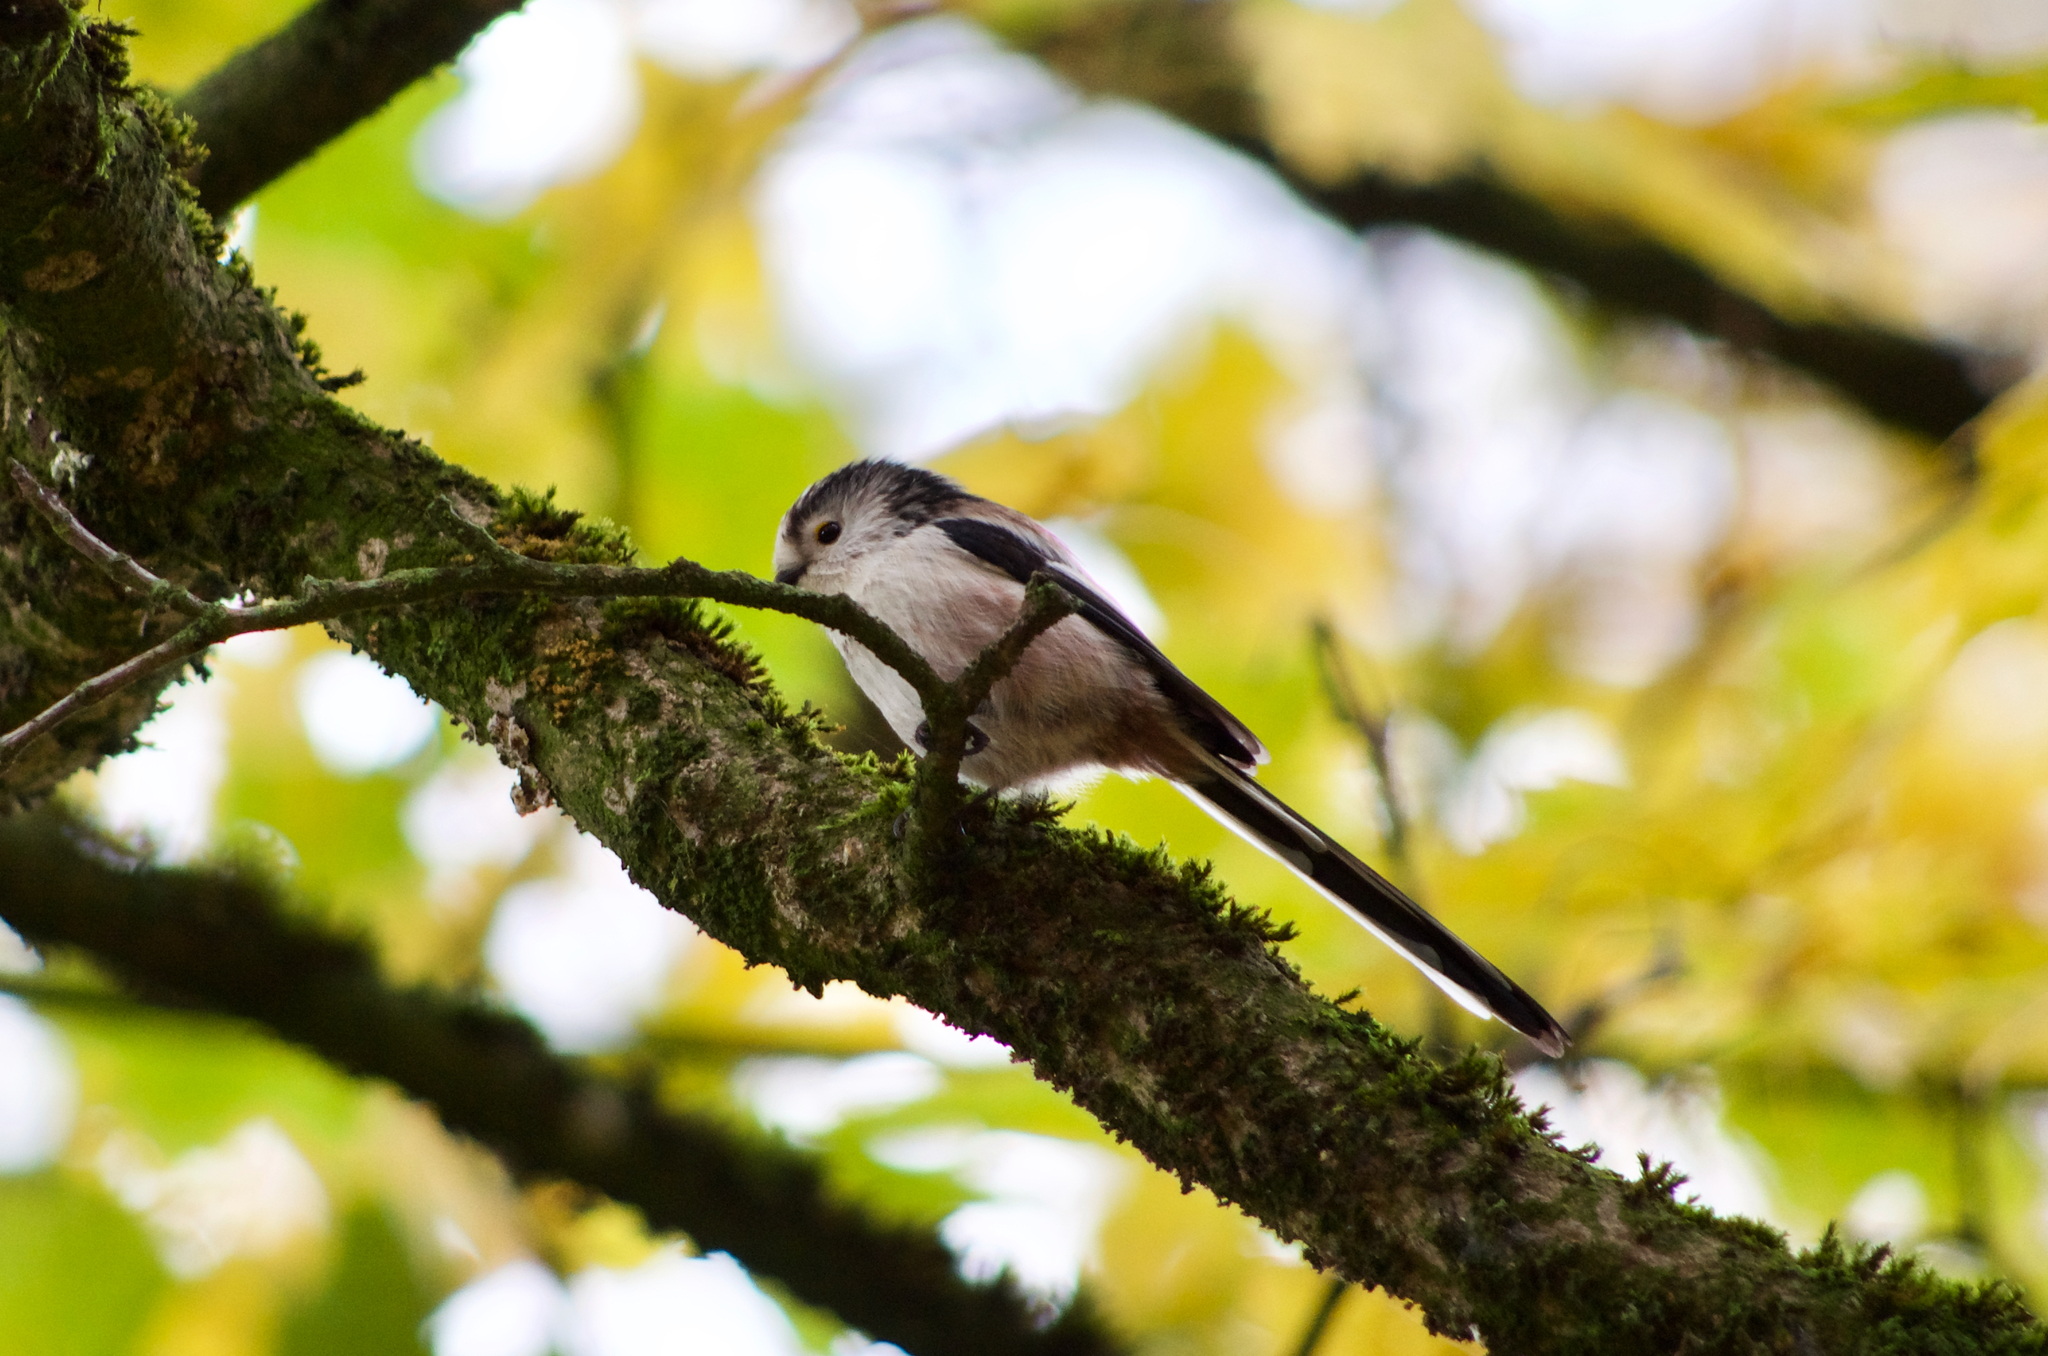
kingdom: Animalia
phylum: Chordata
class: Aves
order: Passeriformes
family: Aegithalidae
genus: Aegithalos
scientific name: Aegithalos caudatus
